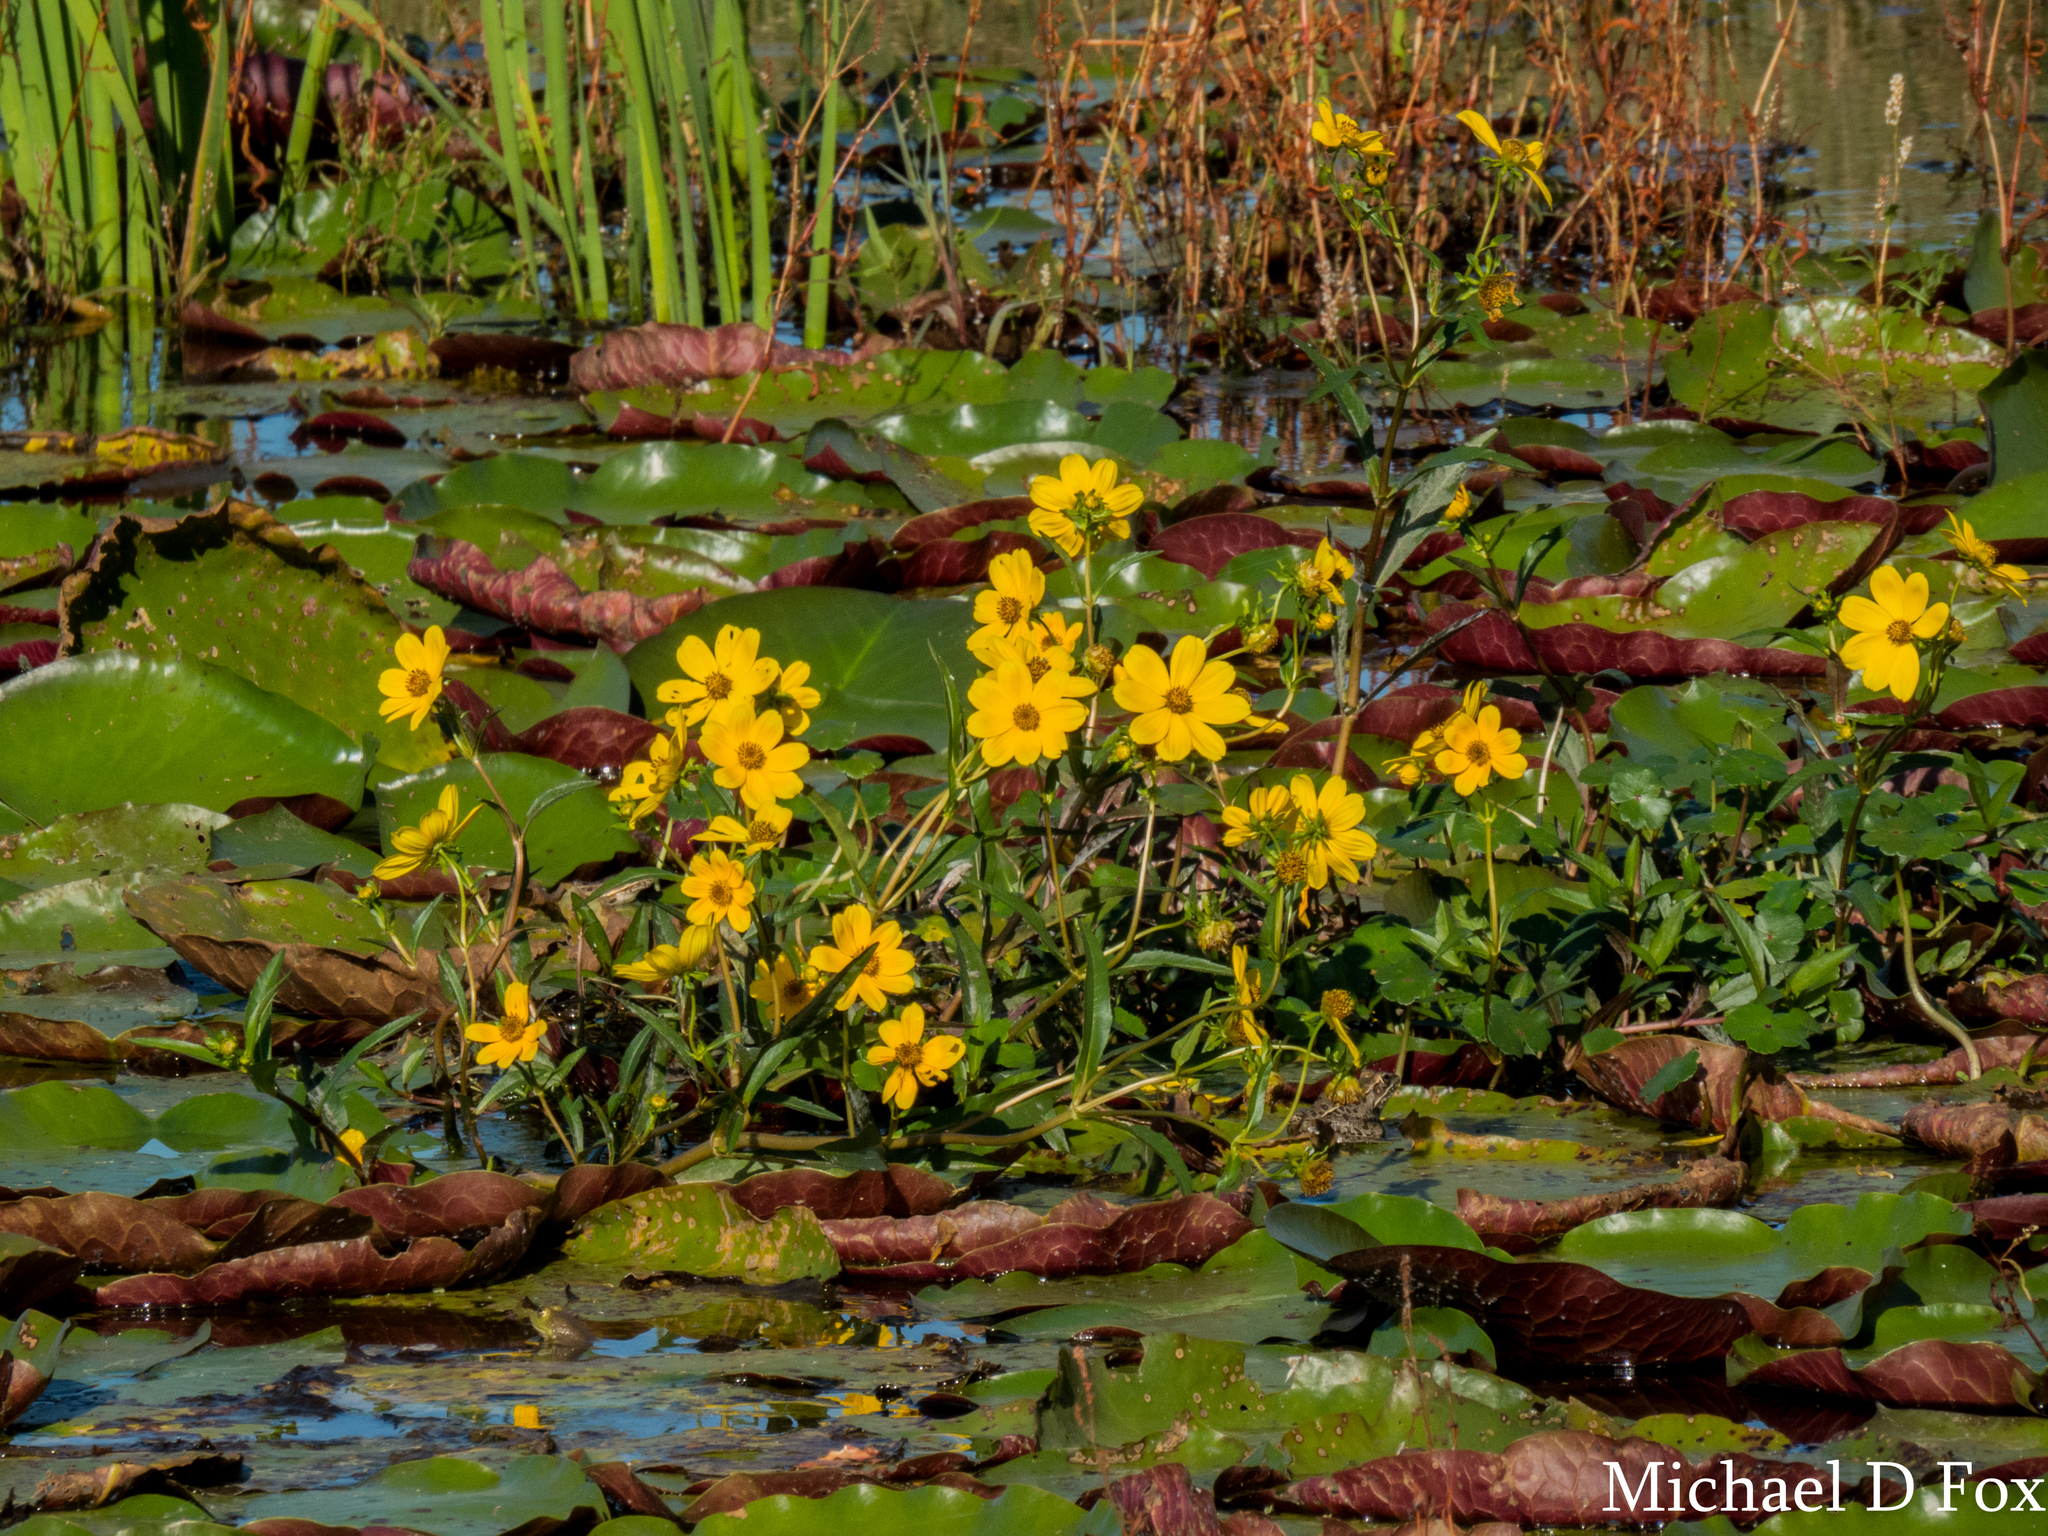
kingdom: Plantae
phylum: Tracheophyta
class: Magnoliopsida
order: Asterales
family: Asteraceae
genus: Bidens
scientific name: Bidens laevis
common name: Larger bur-marigold
